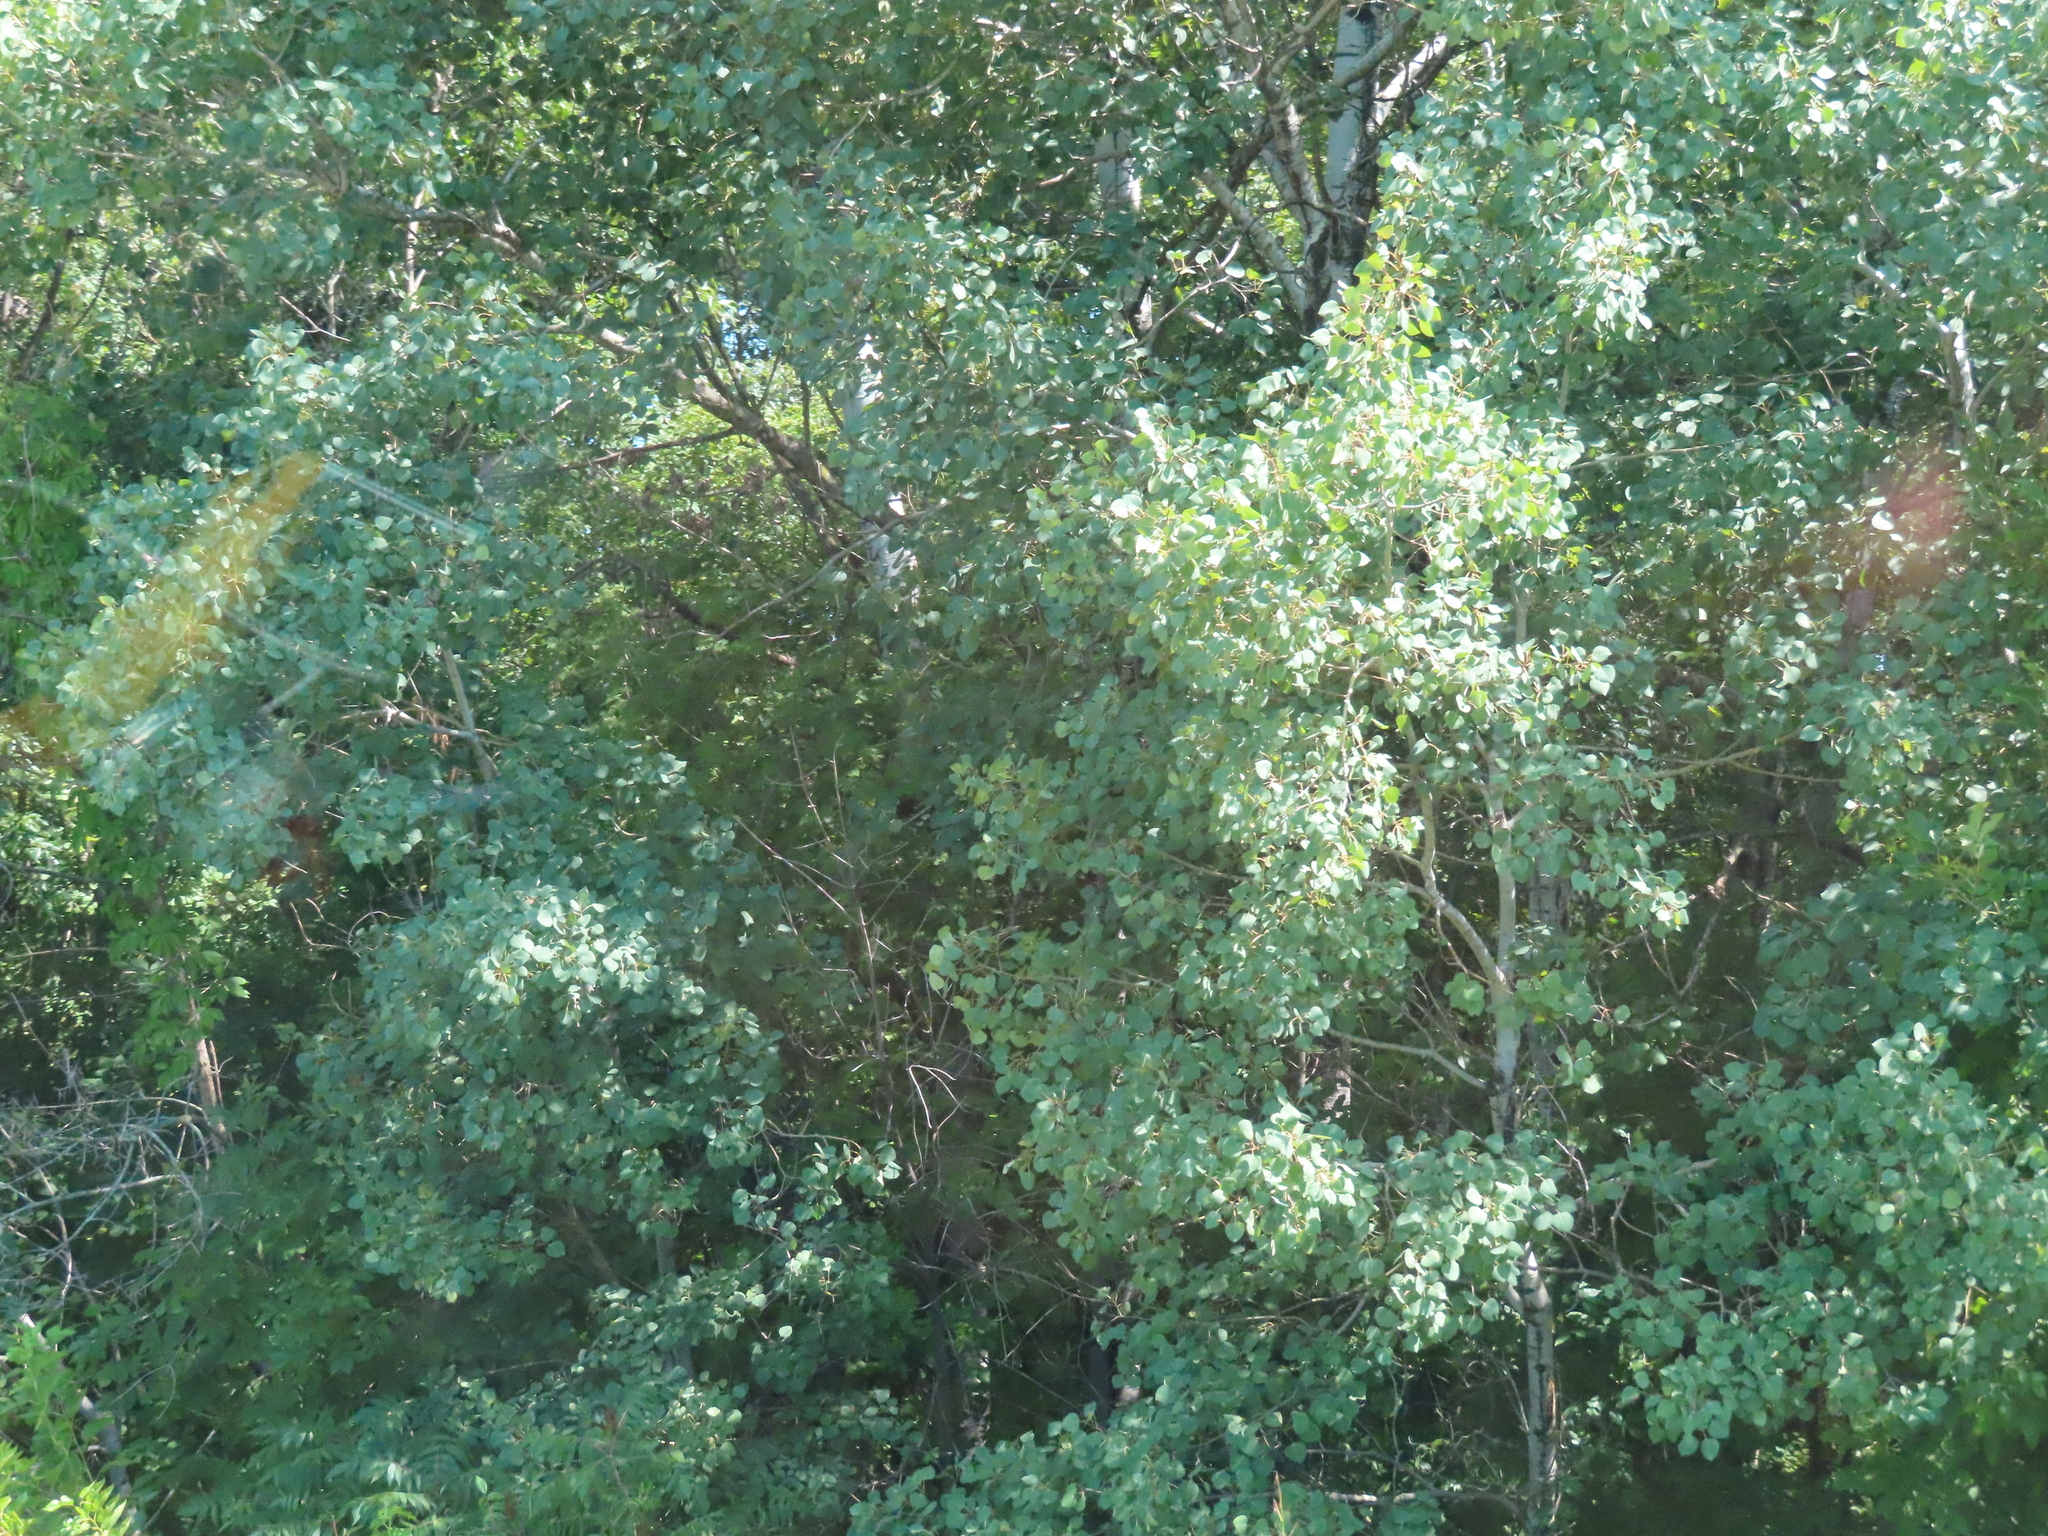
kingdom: Plantae
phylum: Tracheophyta
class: Magnoliopsida
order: Malpighiales
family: Salicaceae
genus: Populus
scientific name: Populus tremuloides
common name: Quaking aspen
